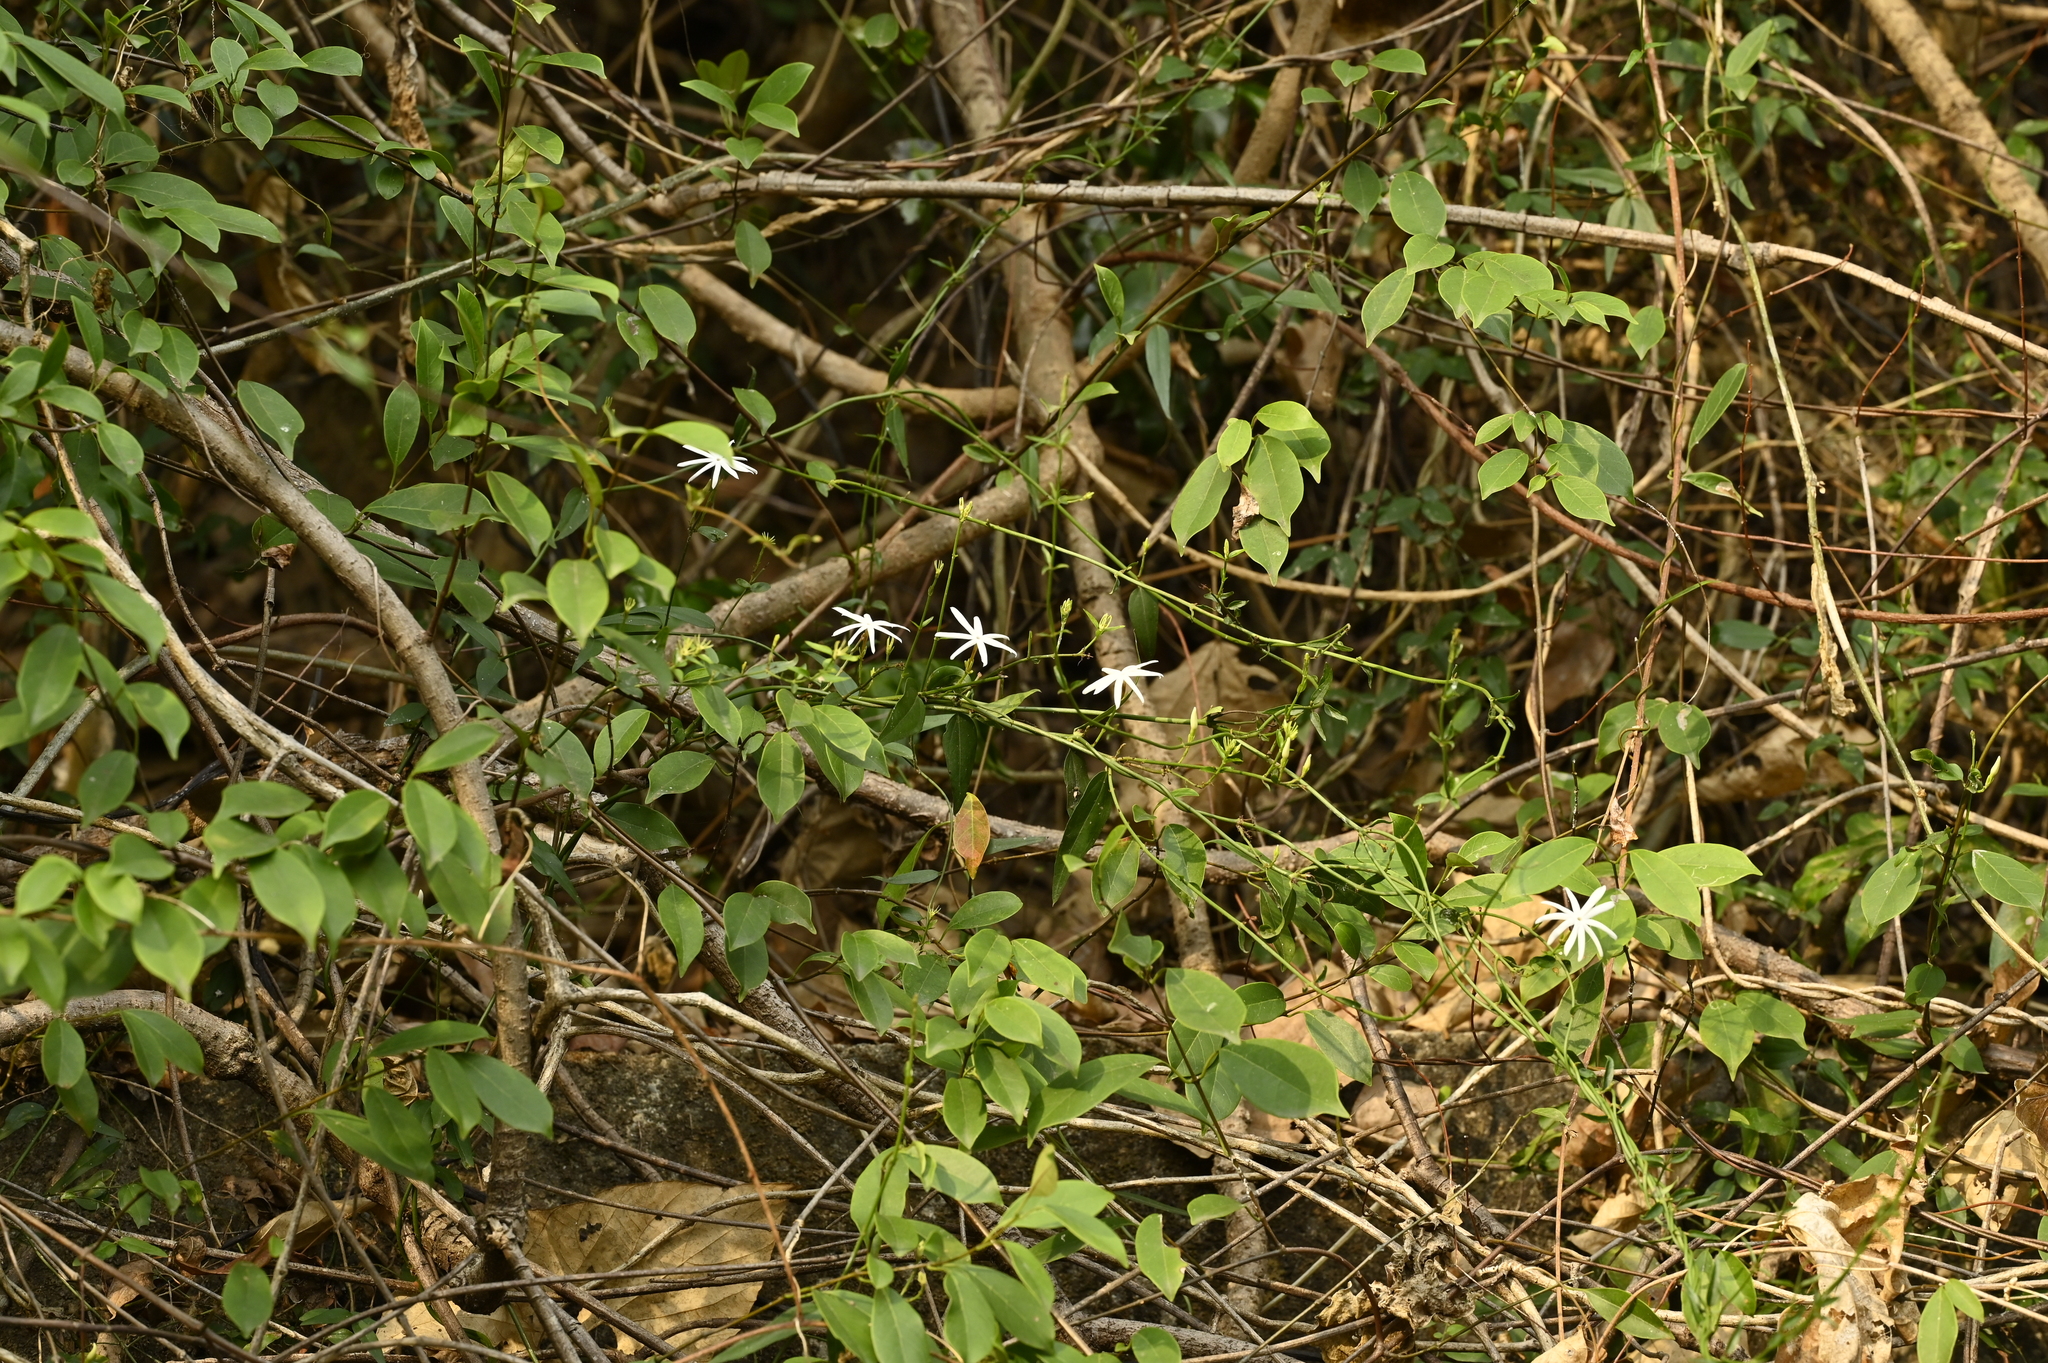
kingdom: Plantae
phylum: Tracheophyta
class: Magnoliopsida
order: Lamiales
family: Oleaceae
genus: Jasminum
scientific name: Jasminum nervosum
